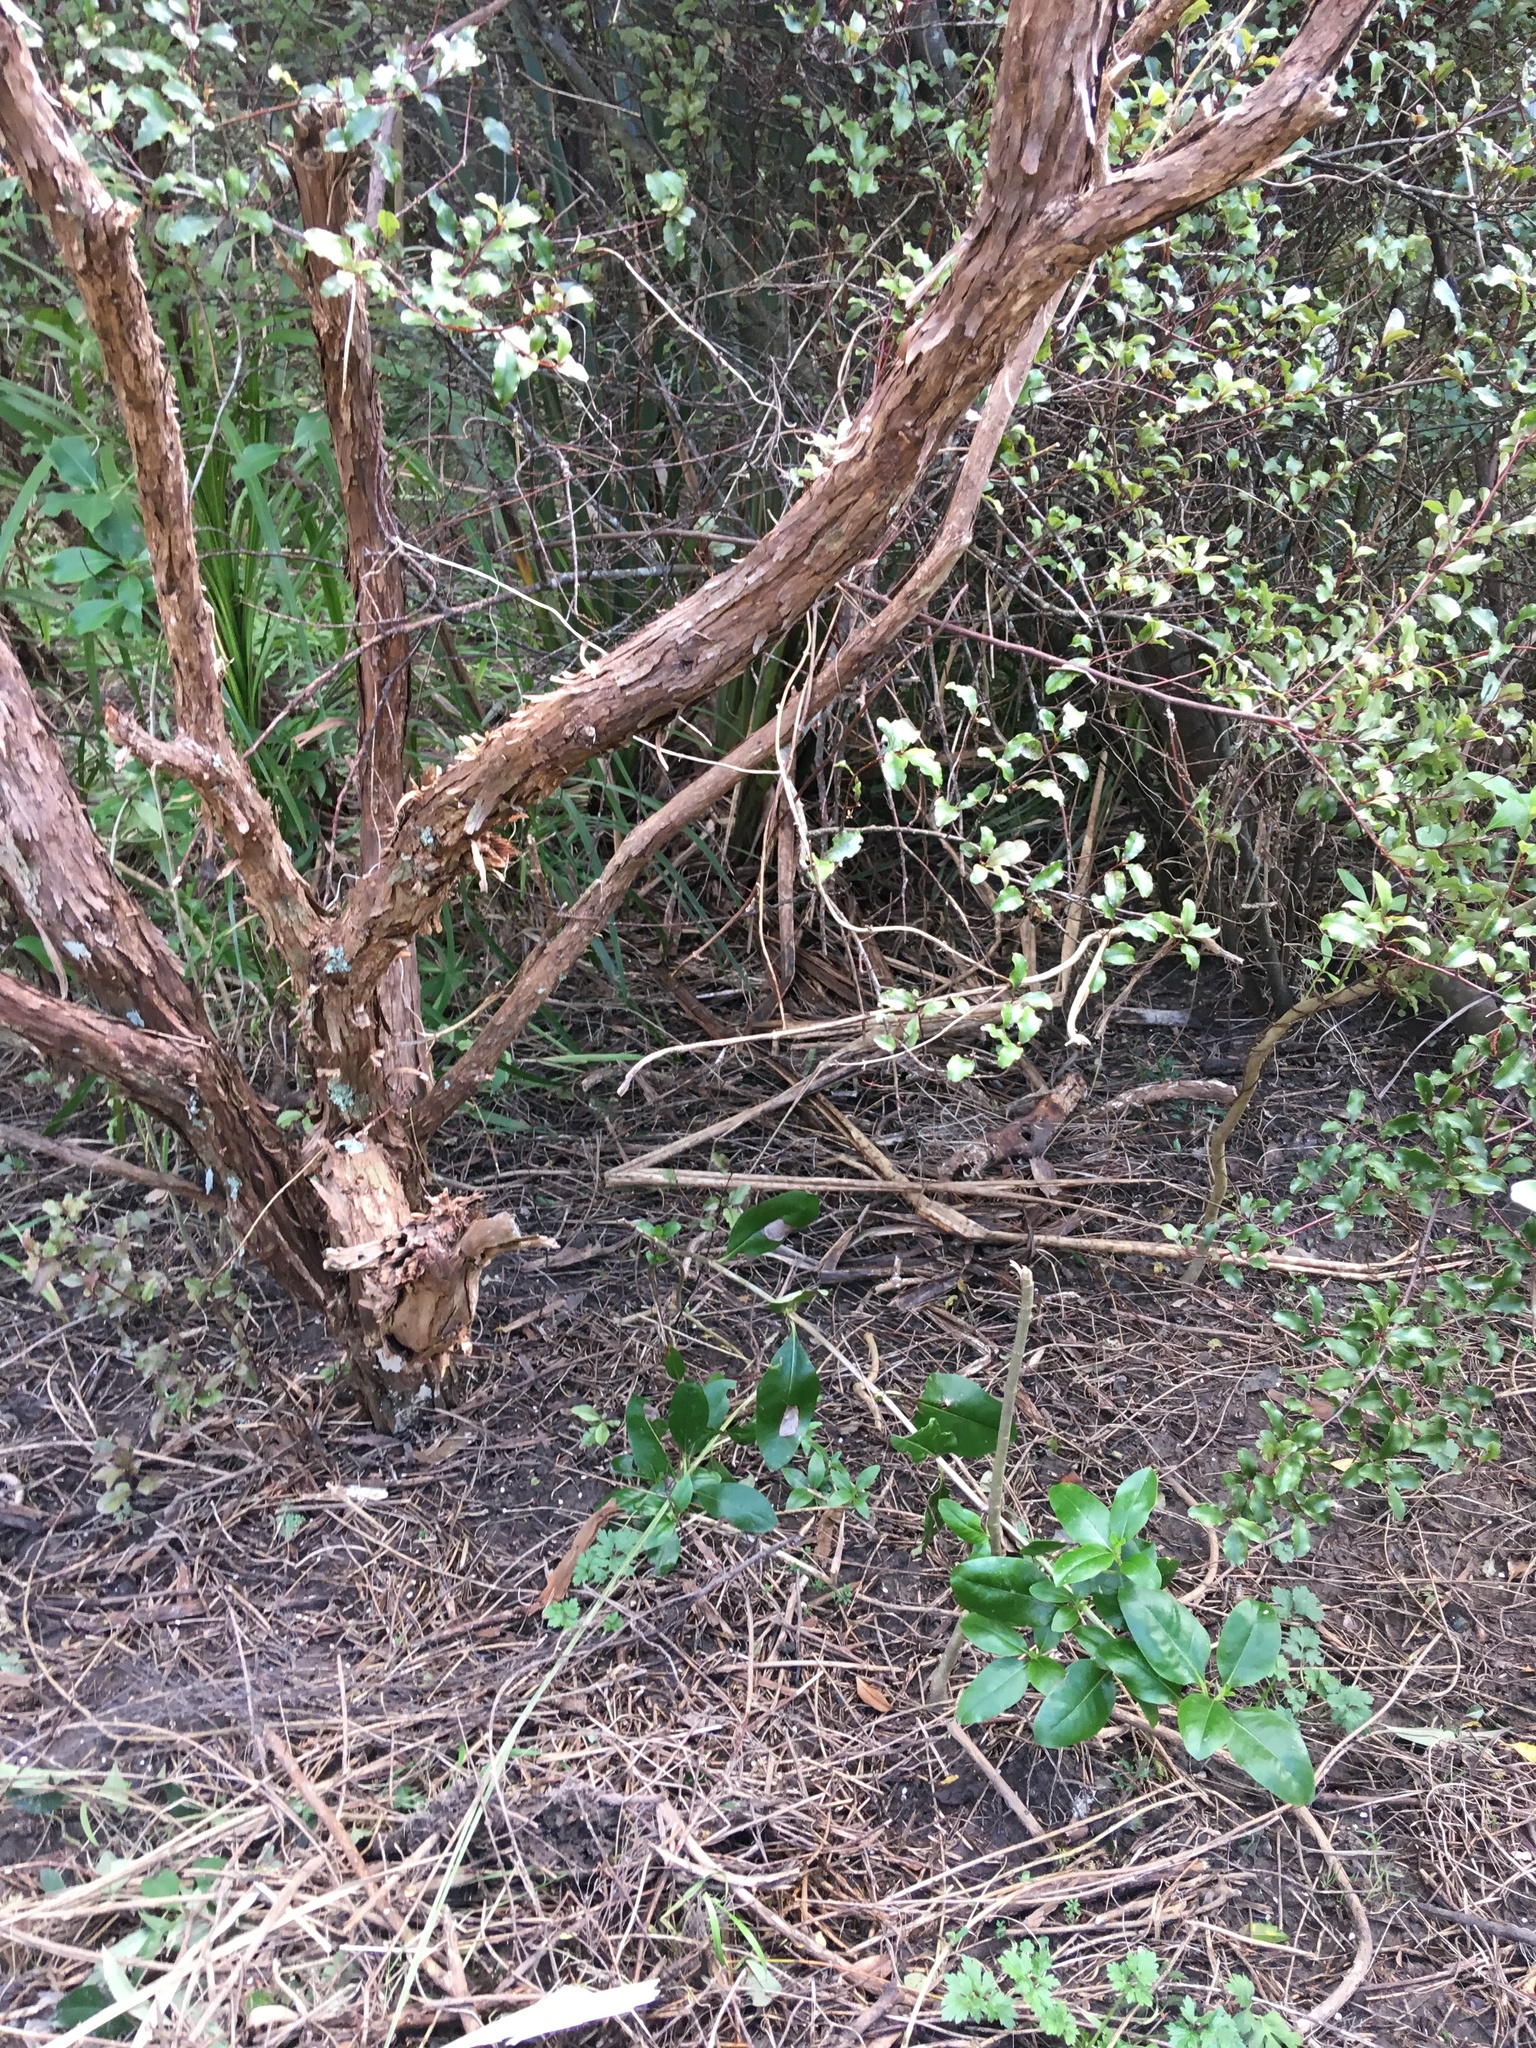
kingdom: Plantae
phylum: Tracheophyta
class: Magnoliopsida
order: Lamiales
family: Oleaceae
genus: Ligustrum
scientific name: Ligustrum lucidum
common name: Glossy privet
